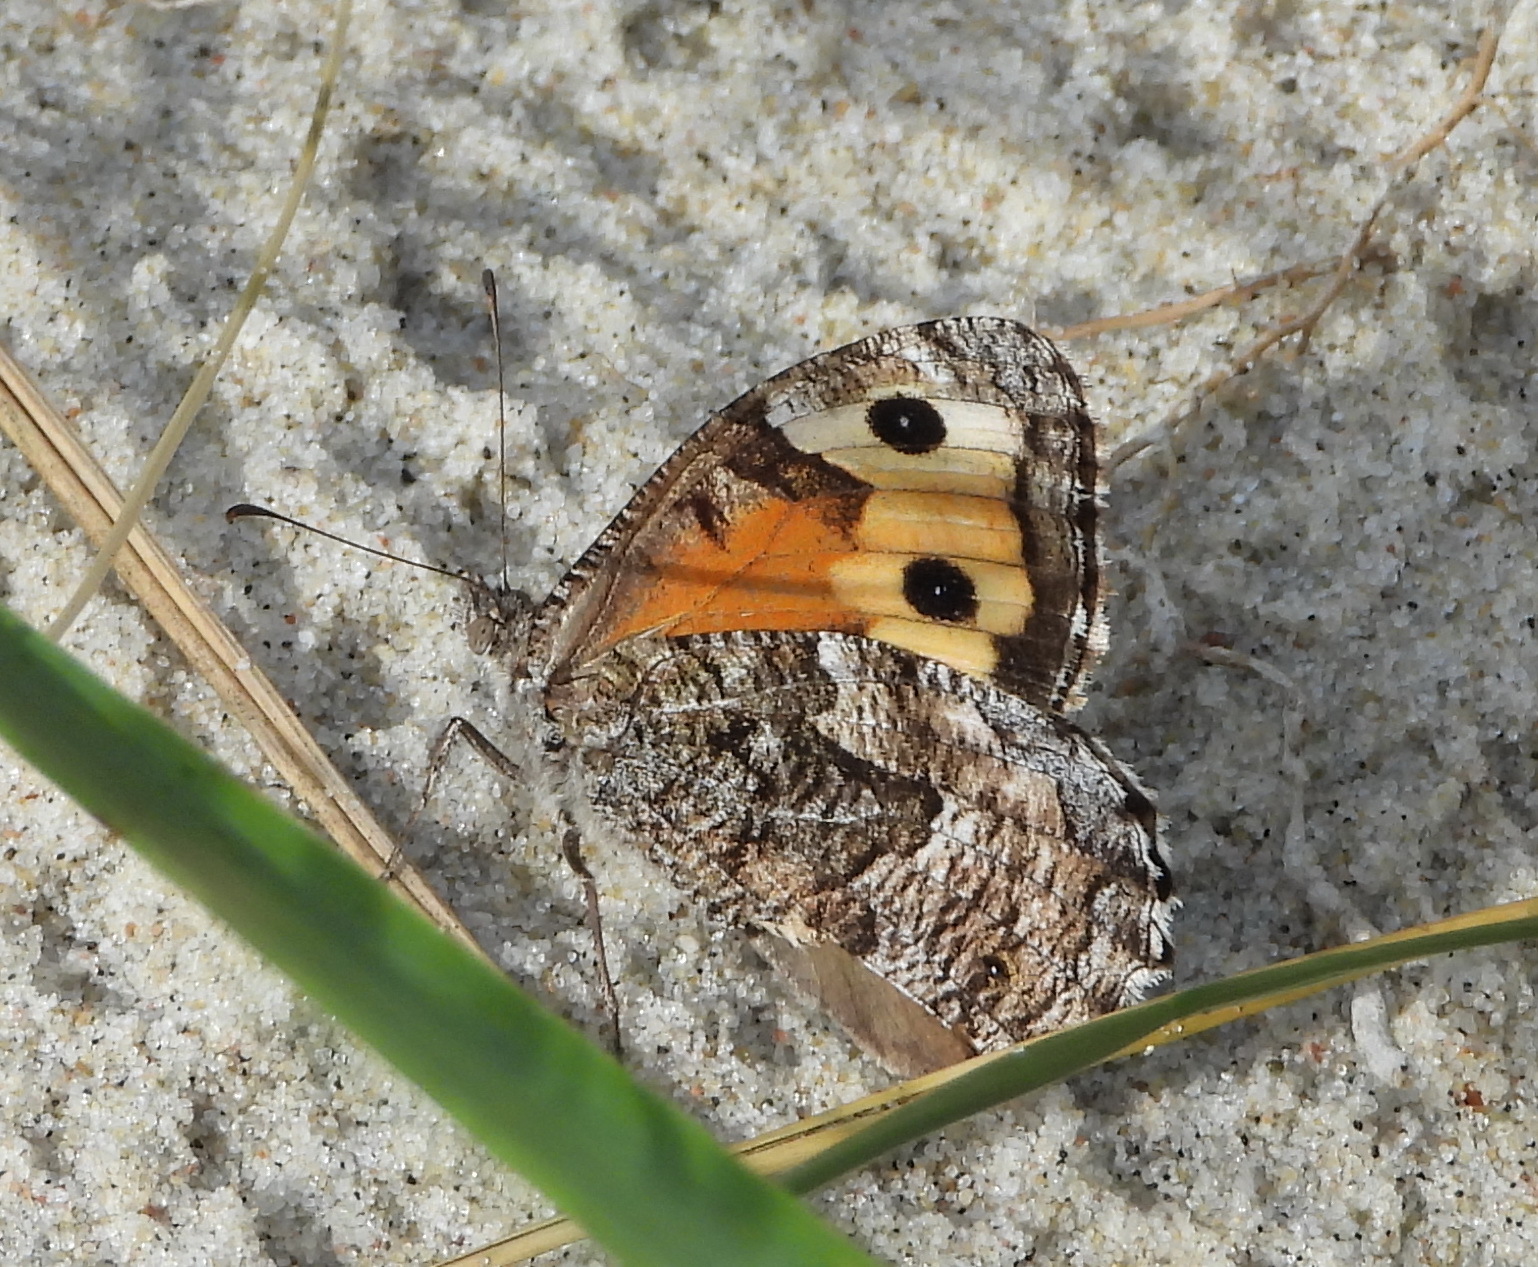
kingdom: Animalia
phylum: Arthropoda
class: Insecta
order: Lepidoptera
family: Nymphalidae
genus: Hipparchia
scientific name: Hipparchia semele
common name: Grayling
